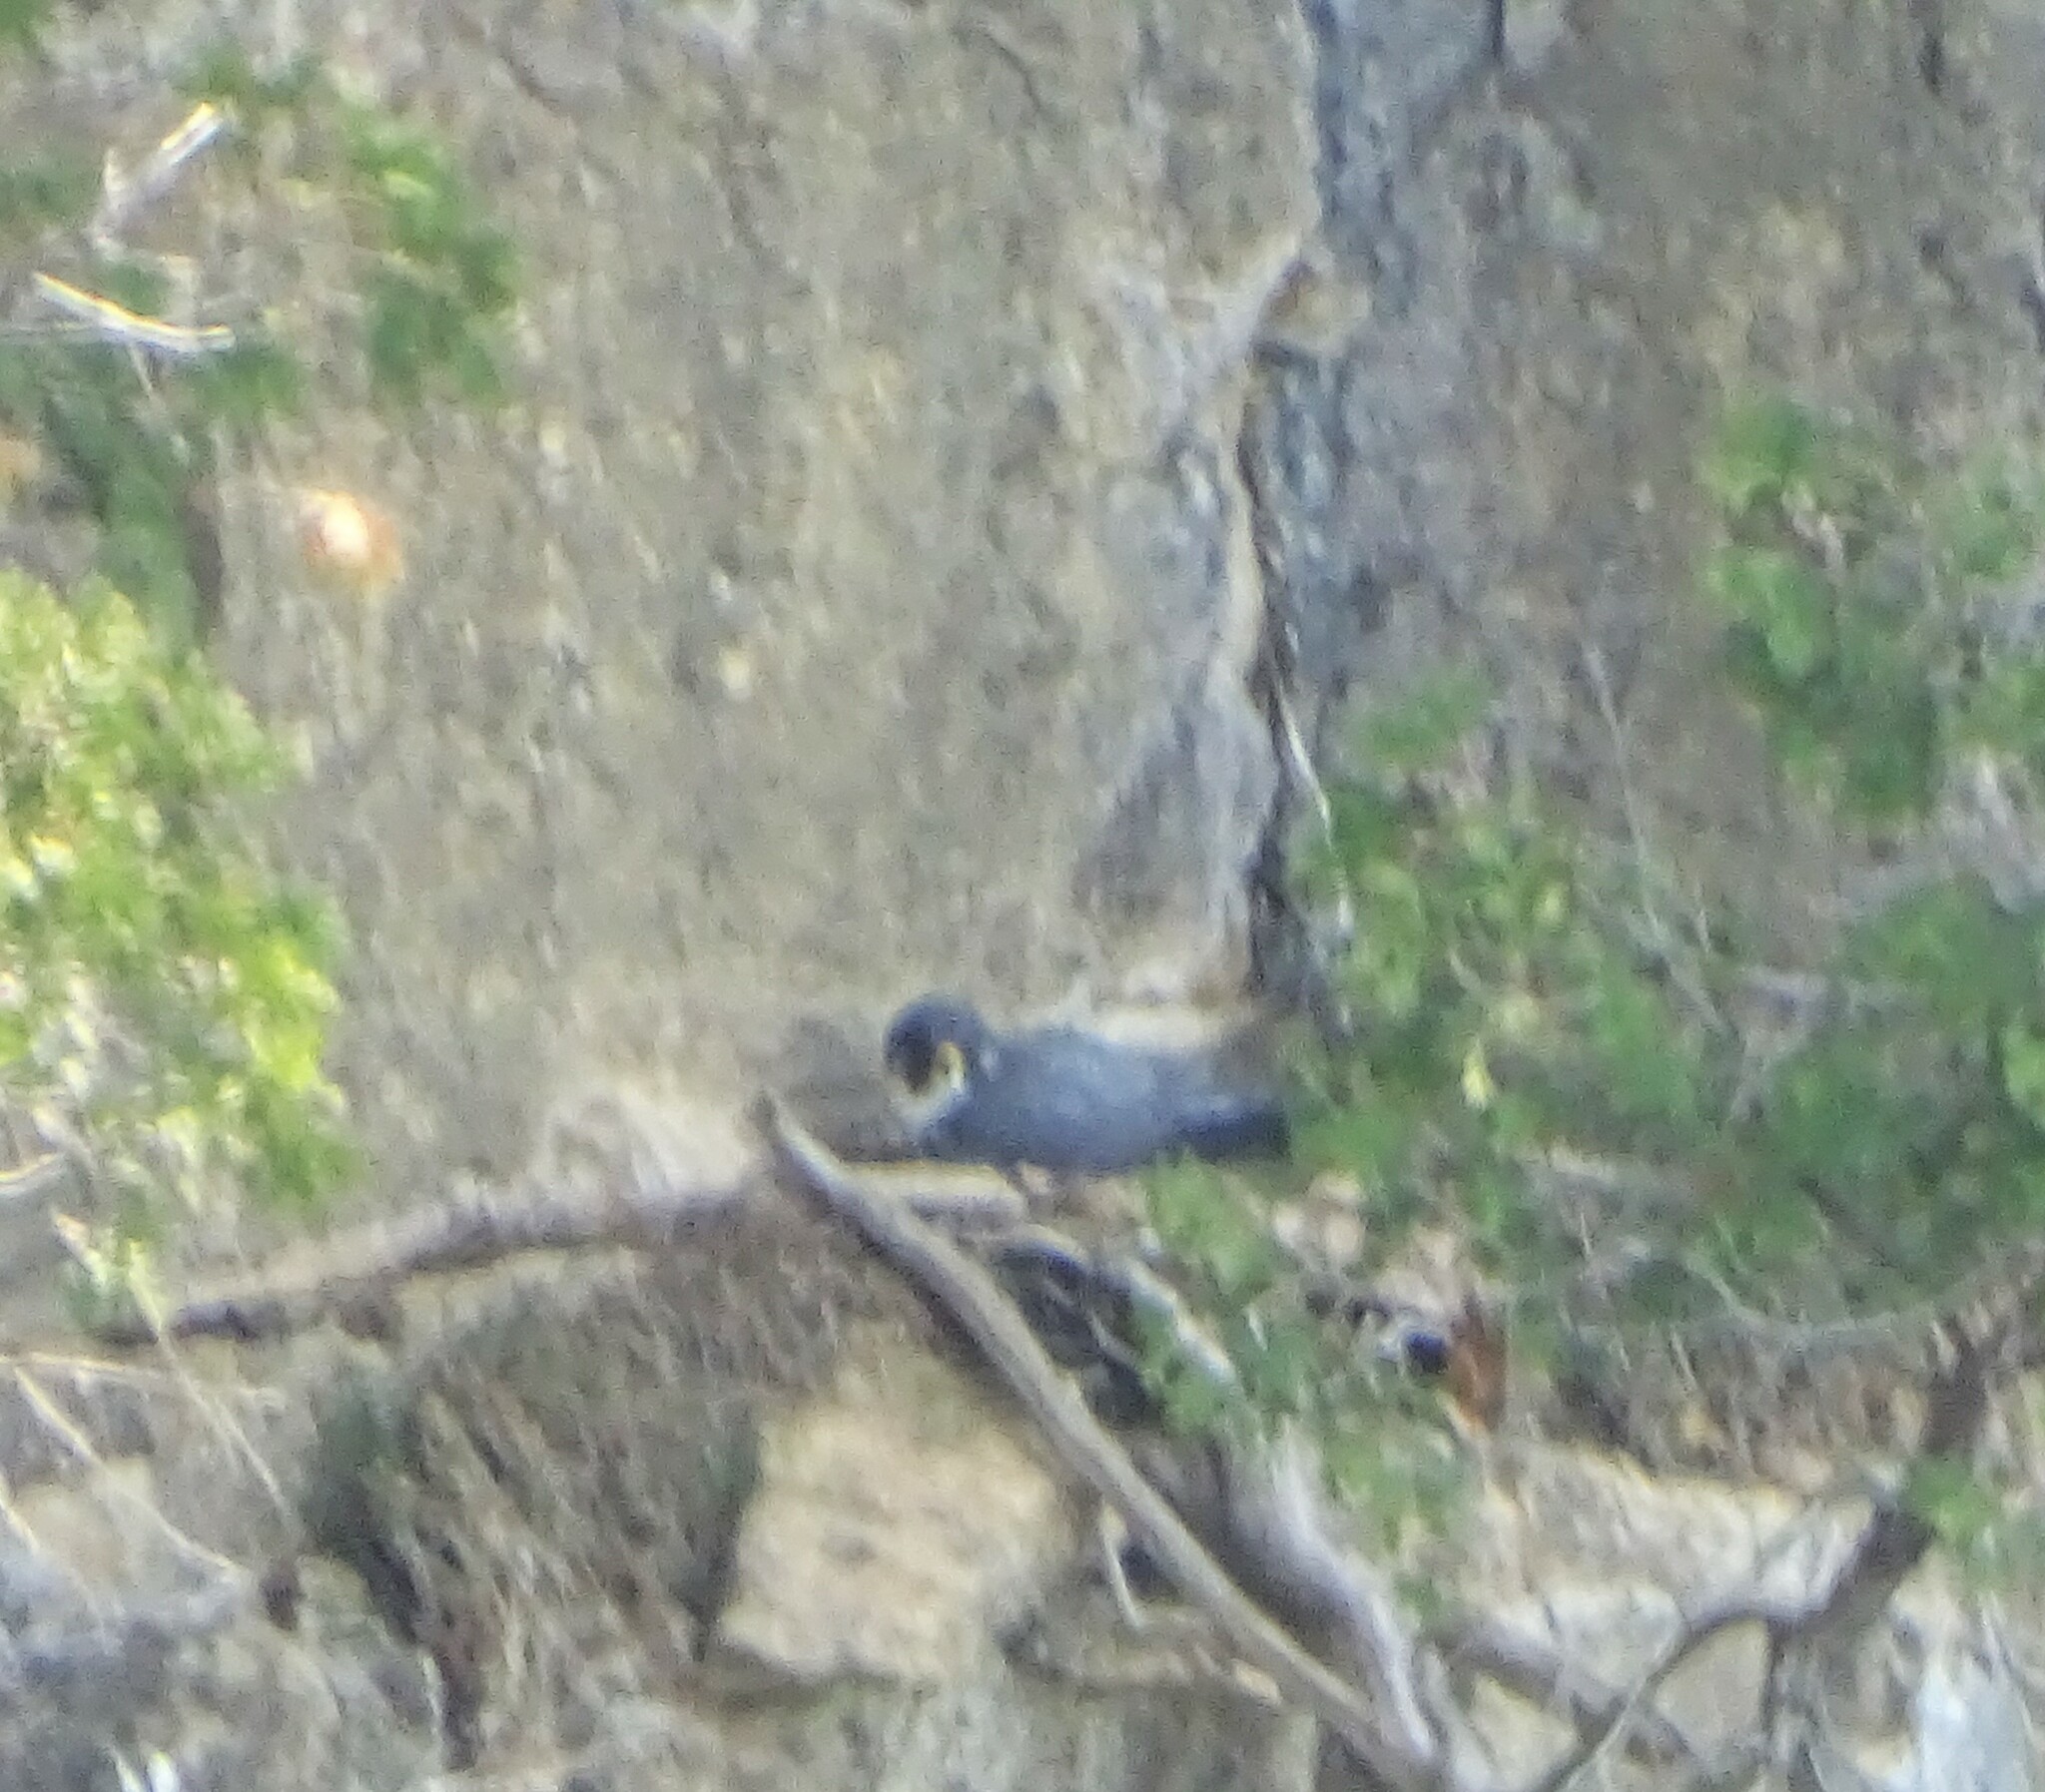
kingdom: Animalia
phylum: Chordata
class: Aves
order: Falconiformes
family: Falconidae
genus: Falco
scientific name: Falco peregrinus
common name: Peregrine falcon
